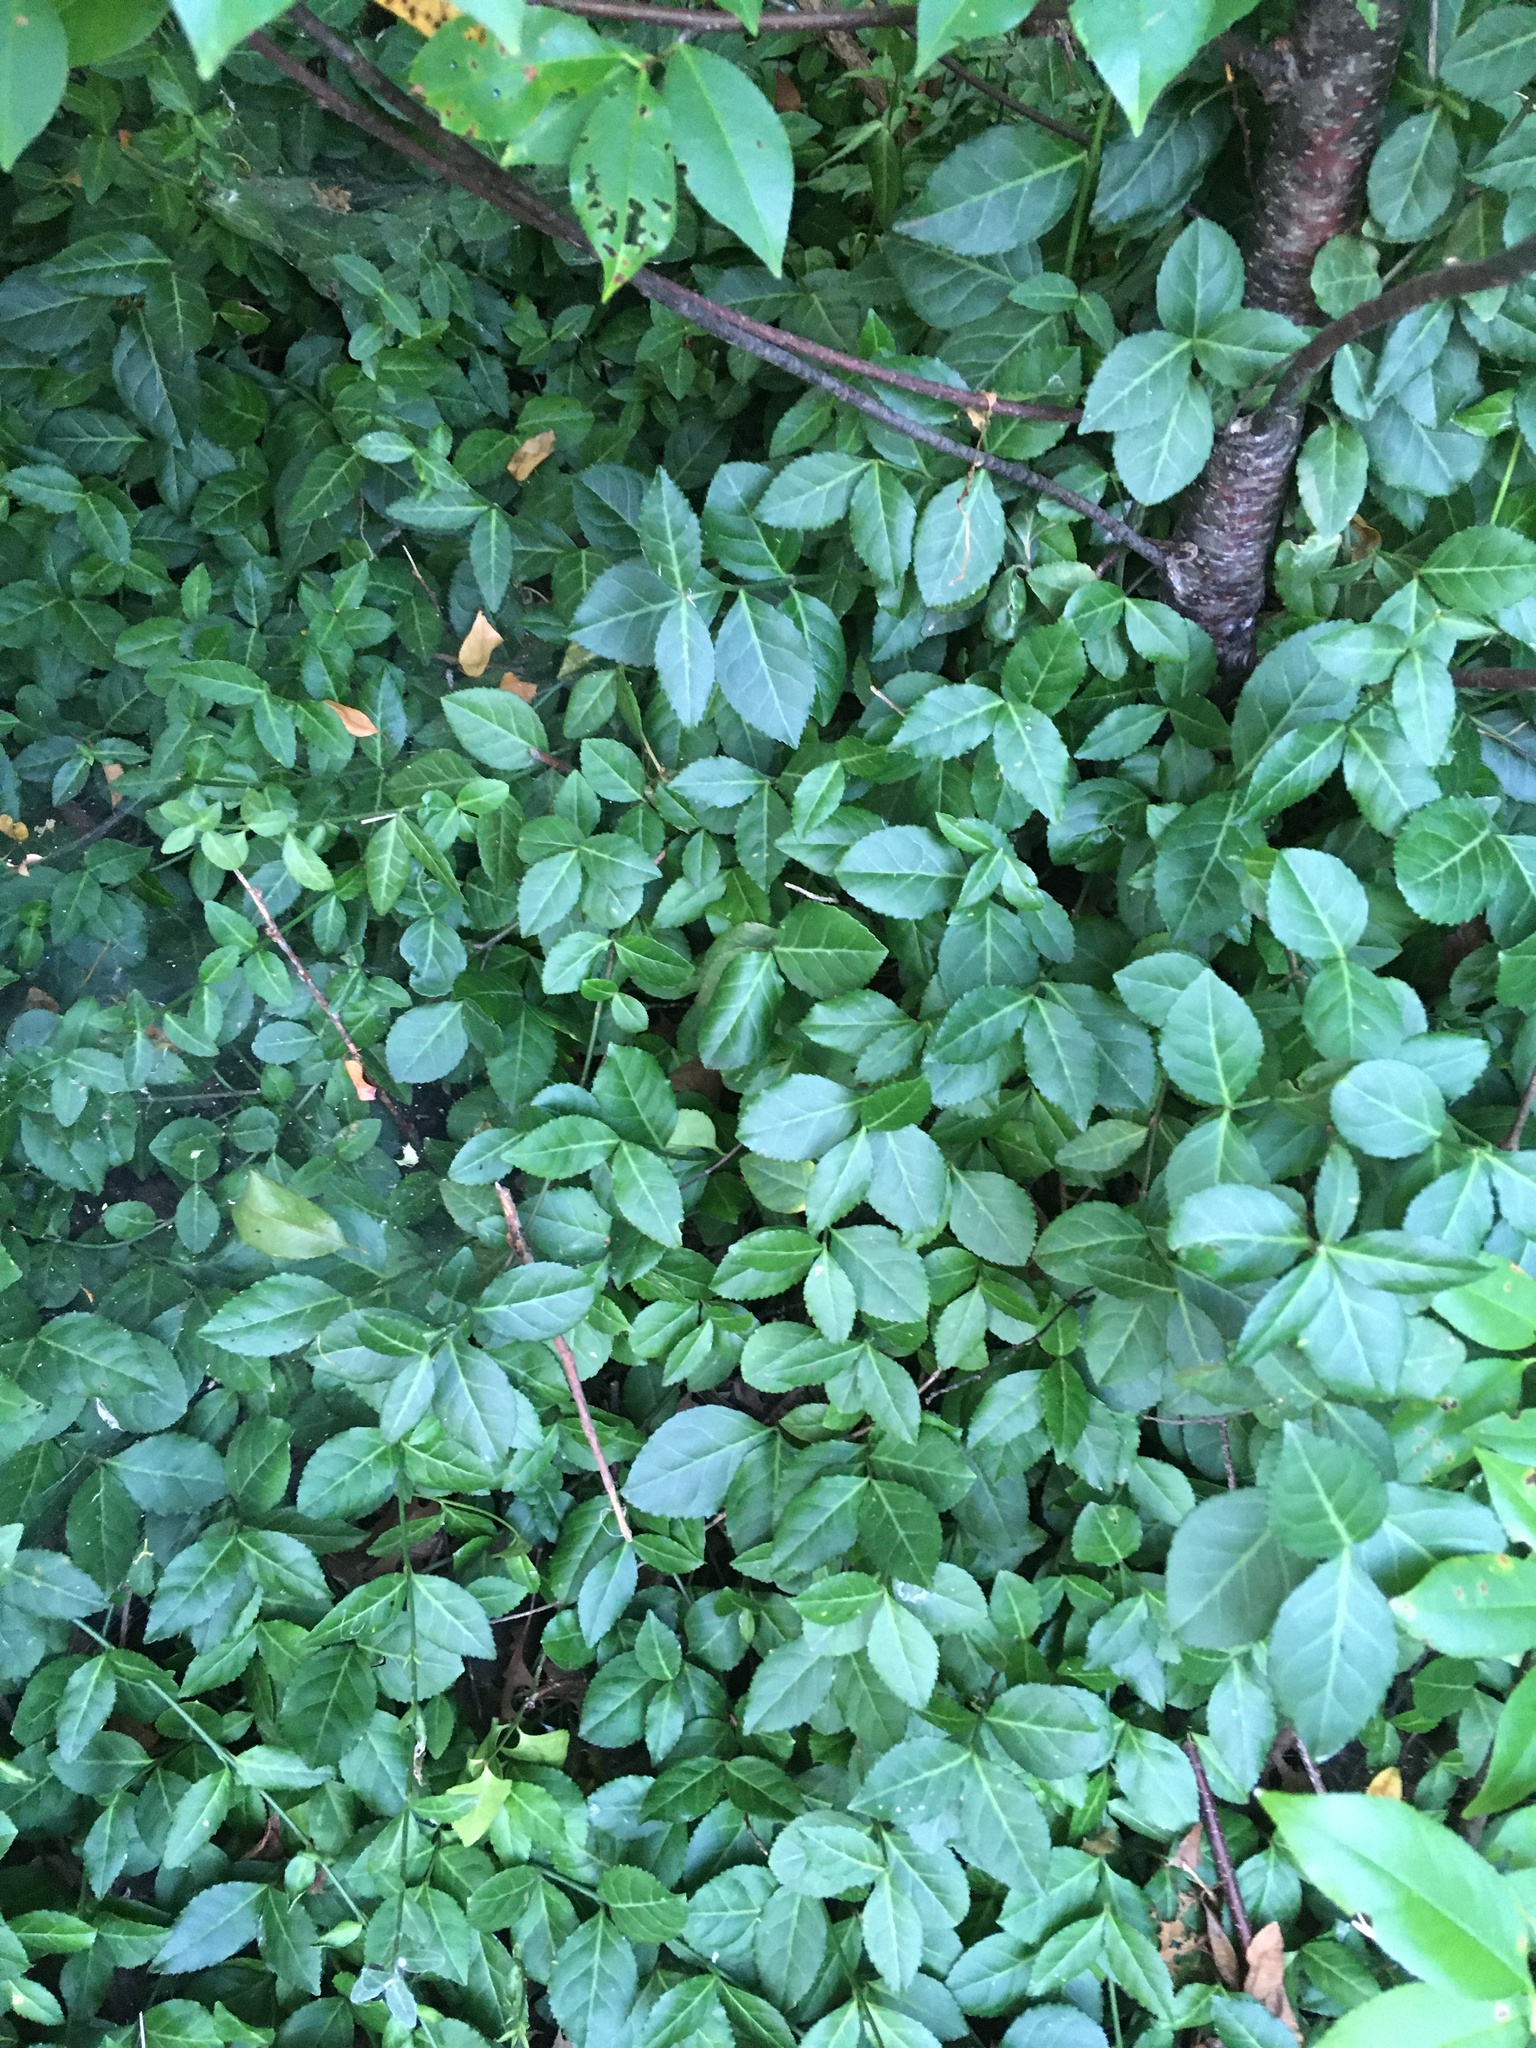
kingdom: Plantae
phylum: Tracheophyta
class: Magnoliopsida
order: Celastrales
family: Celastraceae
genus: Euonymus
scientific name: Euonymus fortunei
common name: Climbing euonymus
